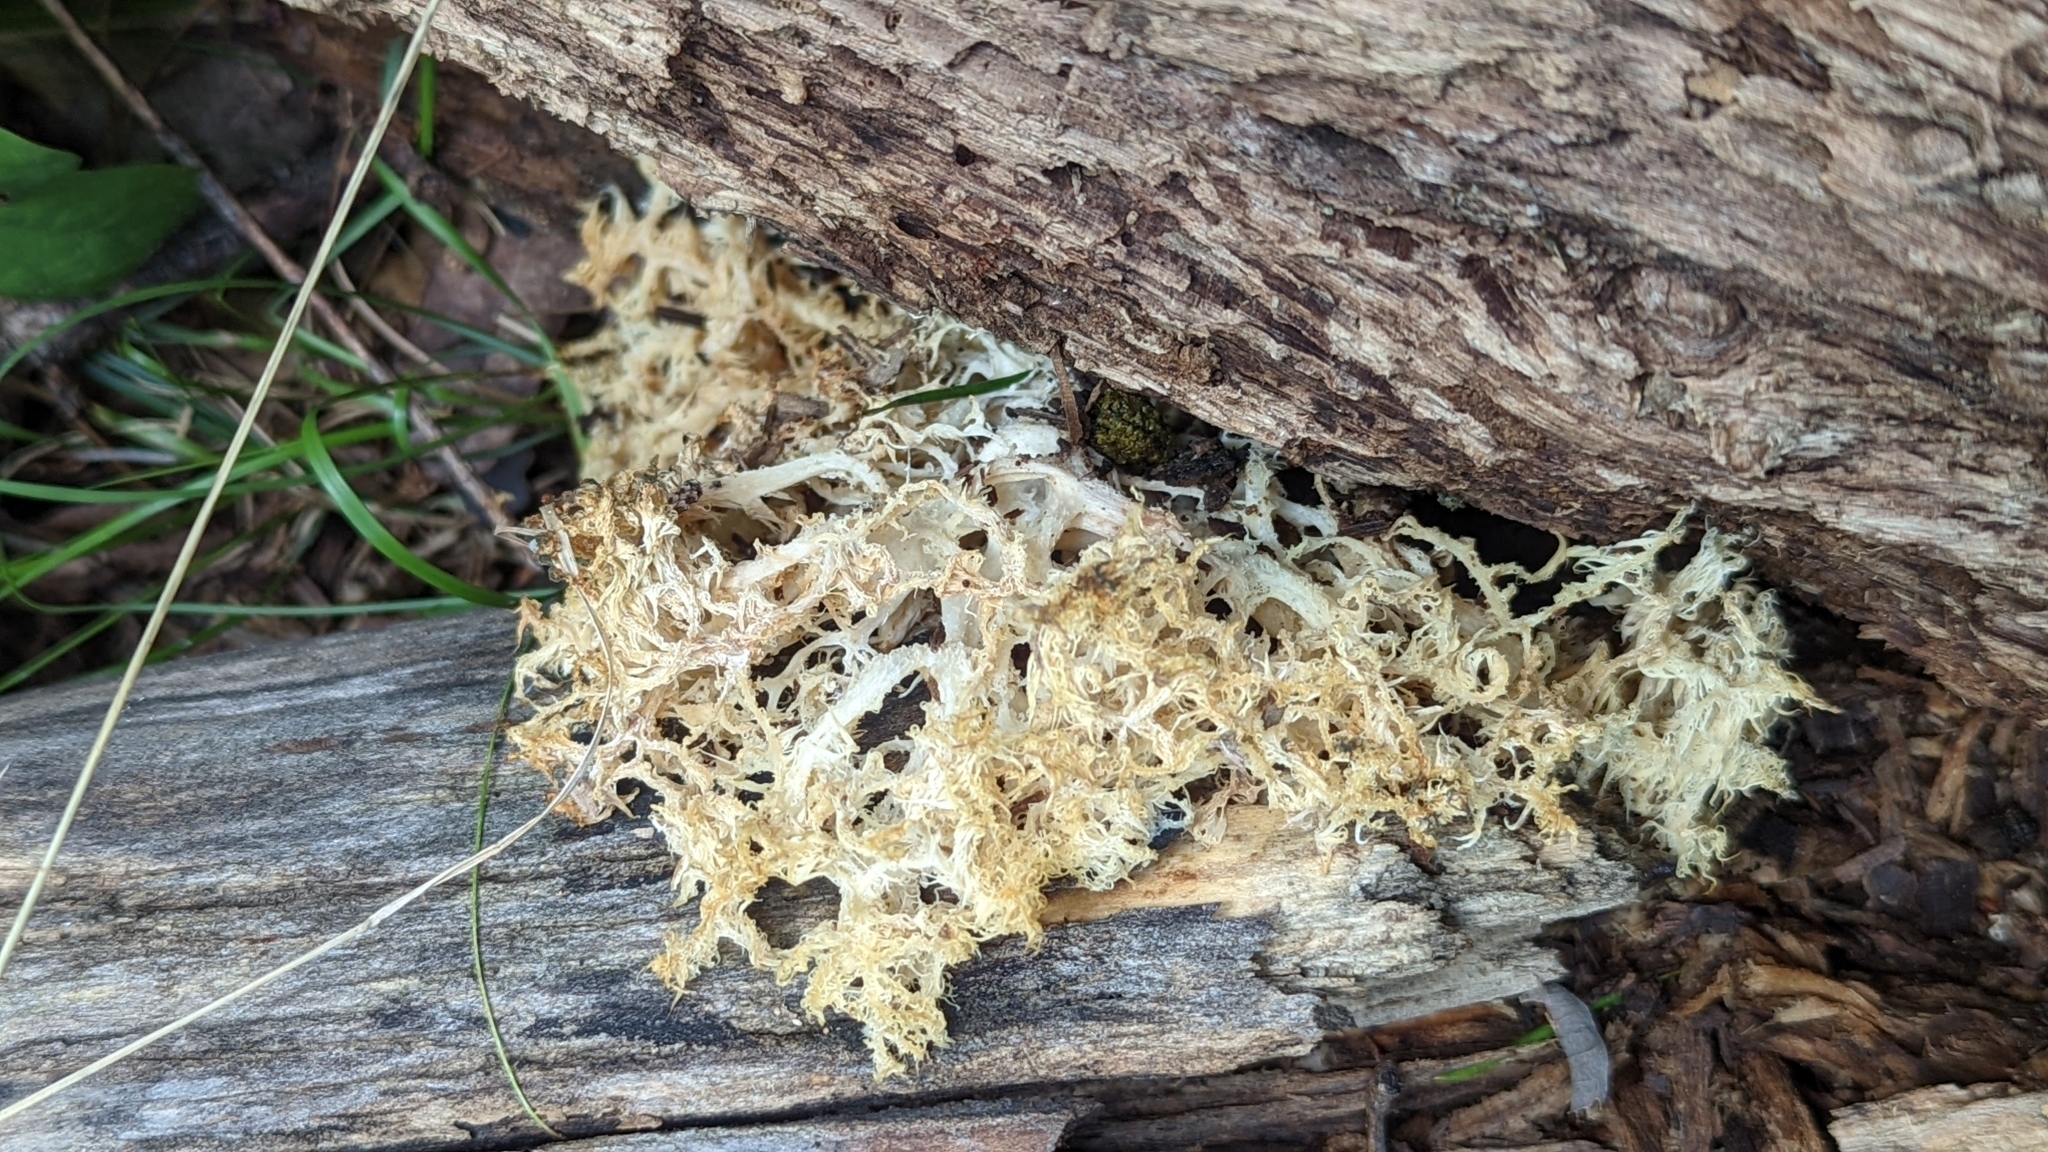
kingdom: Fungi
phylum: Basidiomycota
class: Agaricomycetes
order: Russulales
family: Hericiaceae
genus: Hericium
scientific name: Hericium coralloides
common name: Coral tooth
